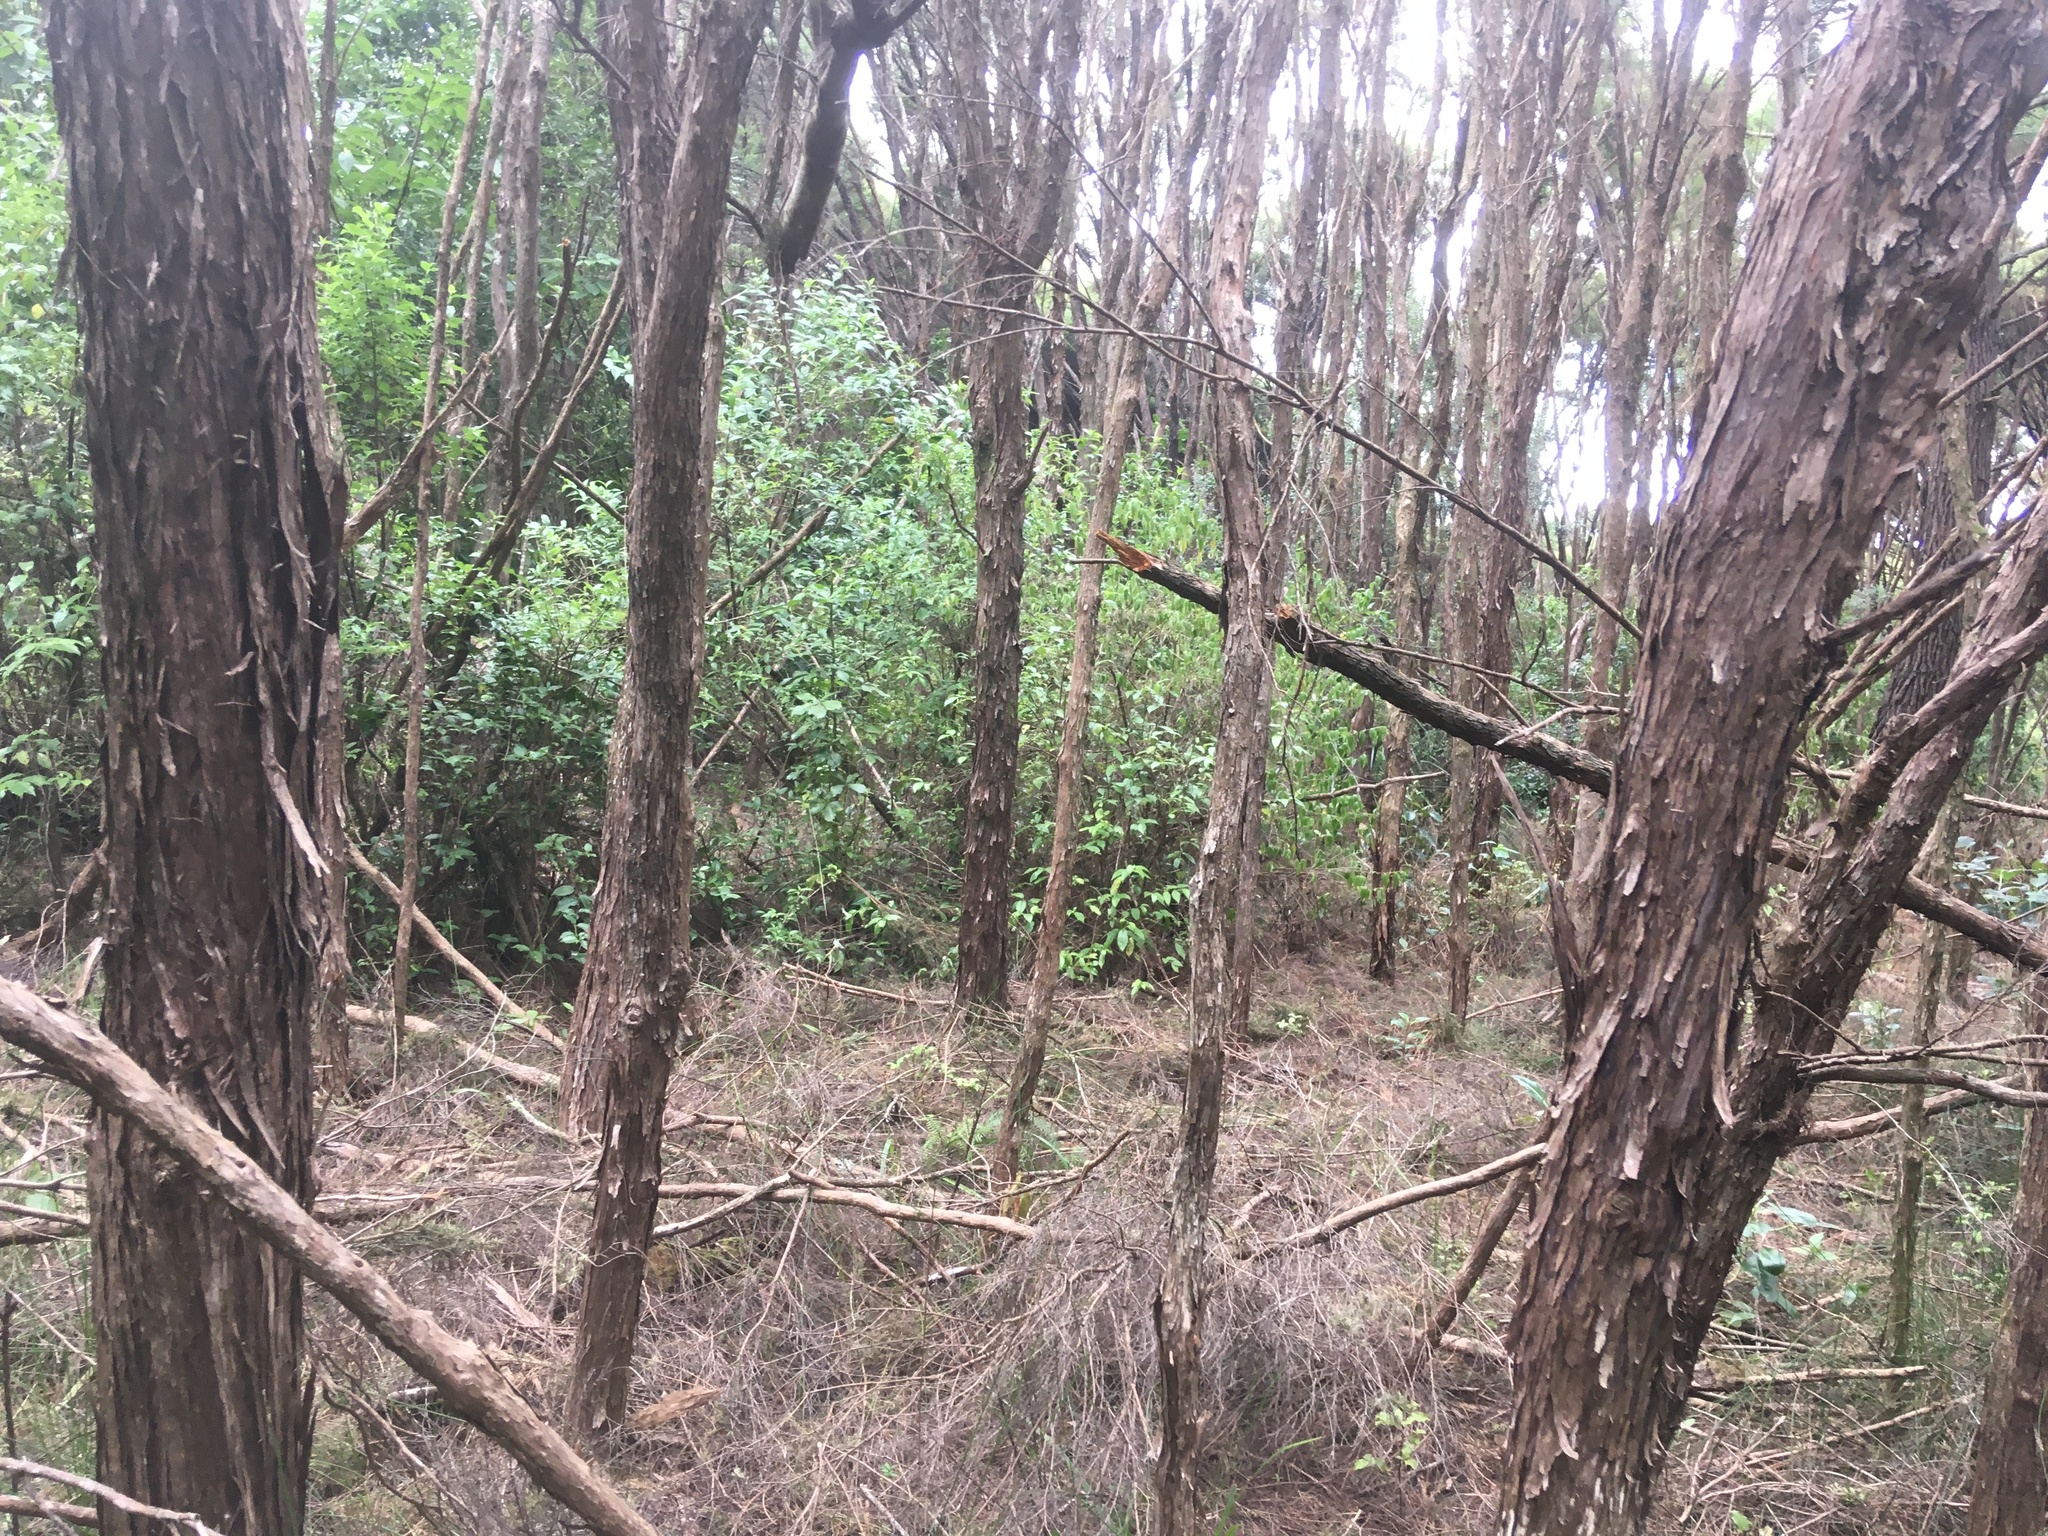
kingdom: Plantae
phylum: Tracheophyta
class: Magnoliopsida
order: Gentianales
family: Loganiaceae
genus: Geniostoma
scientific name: Geniostoma ligustrifolium
